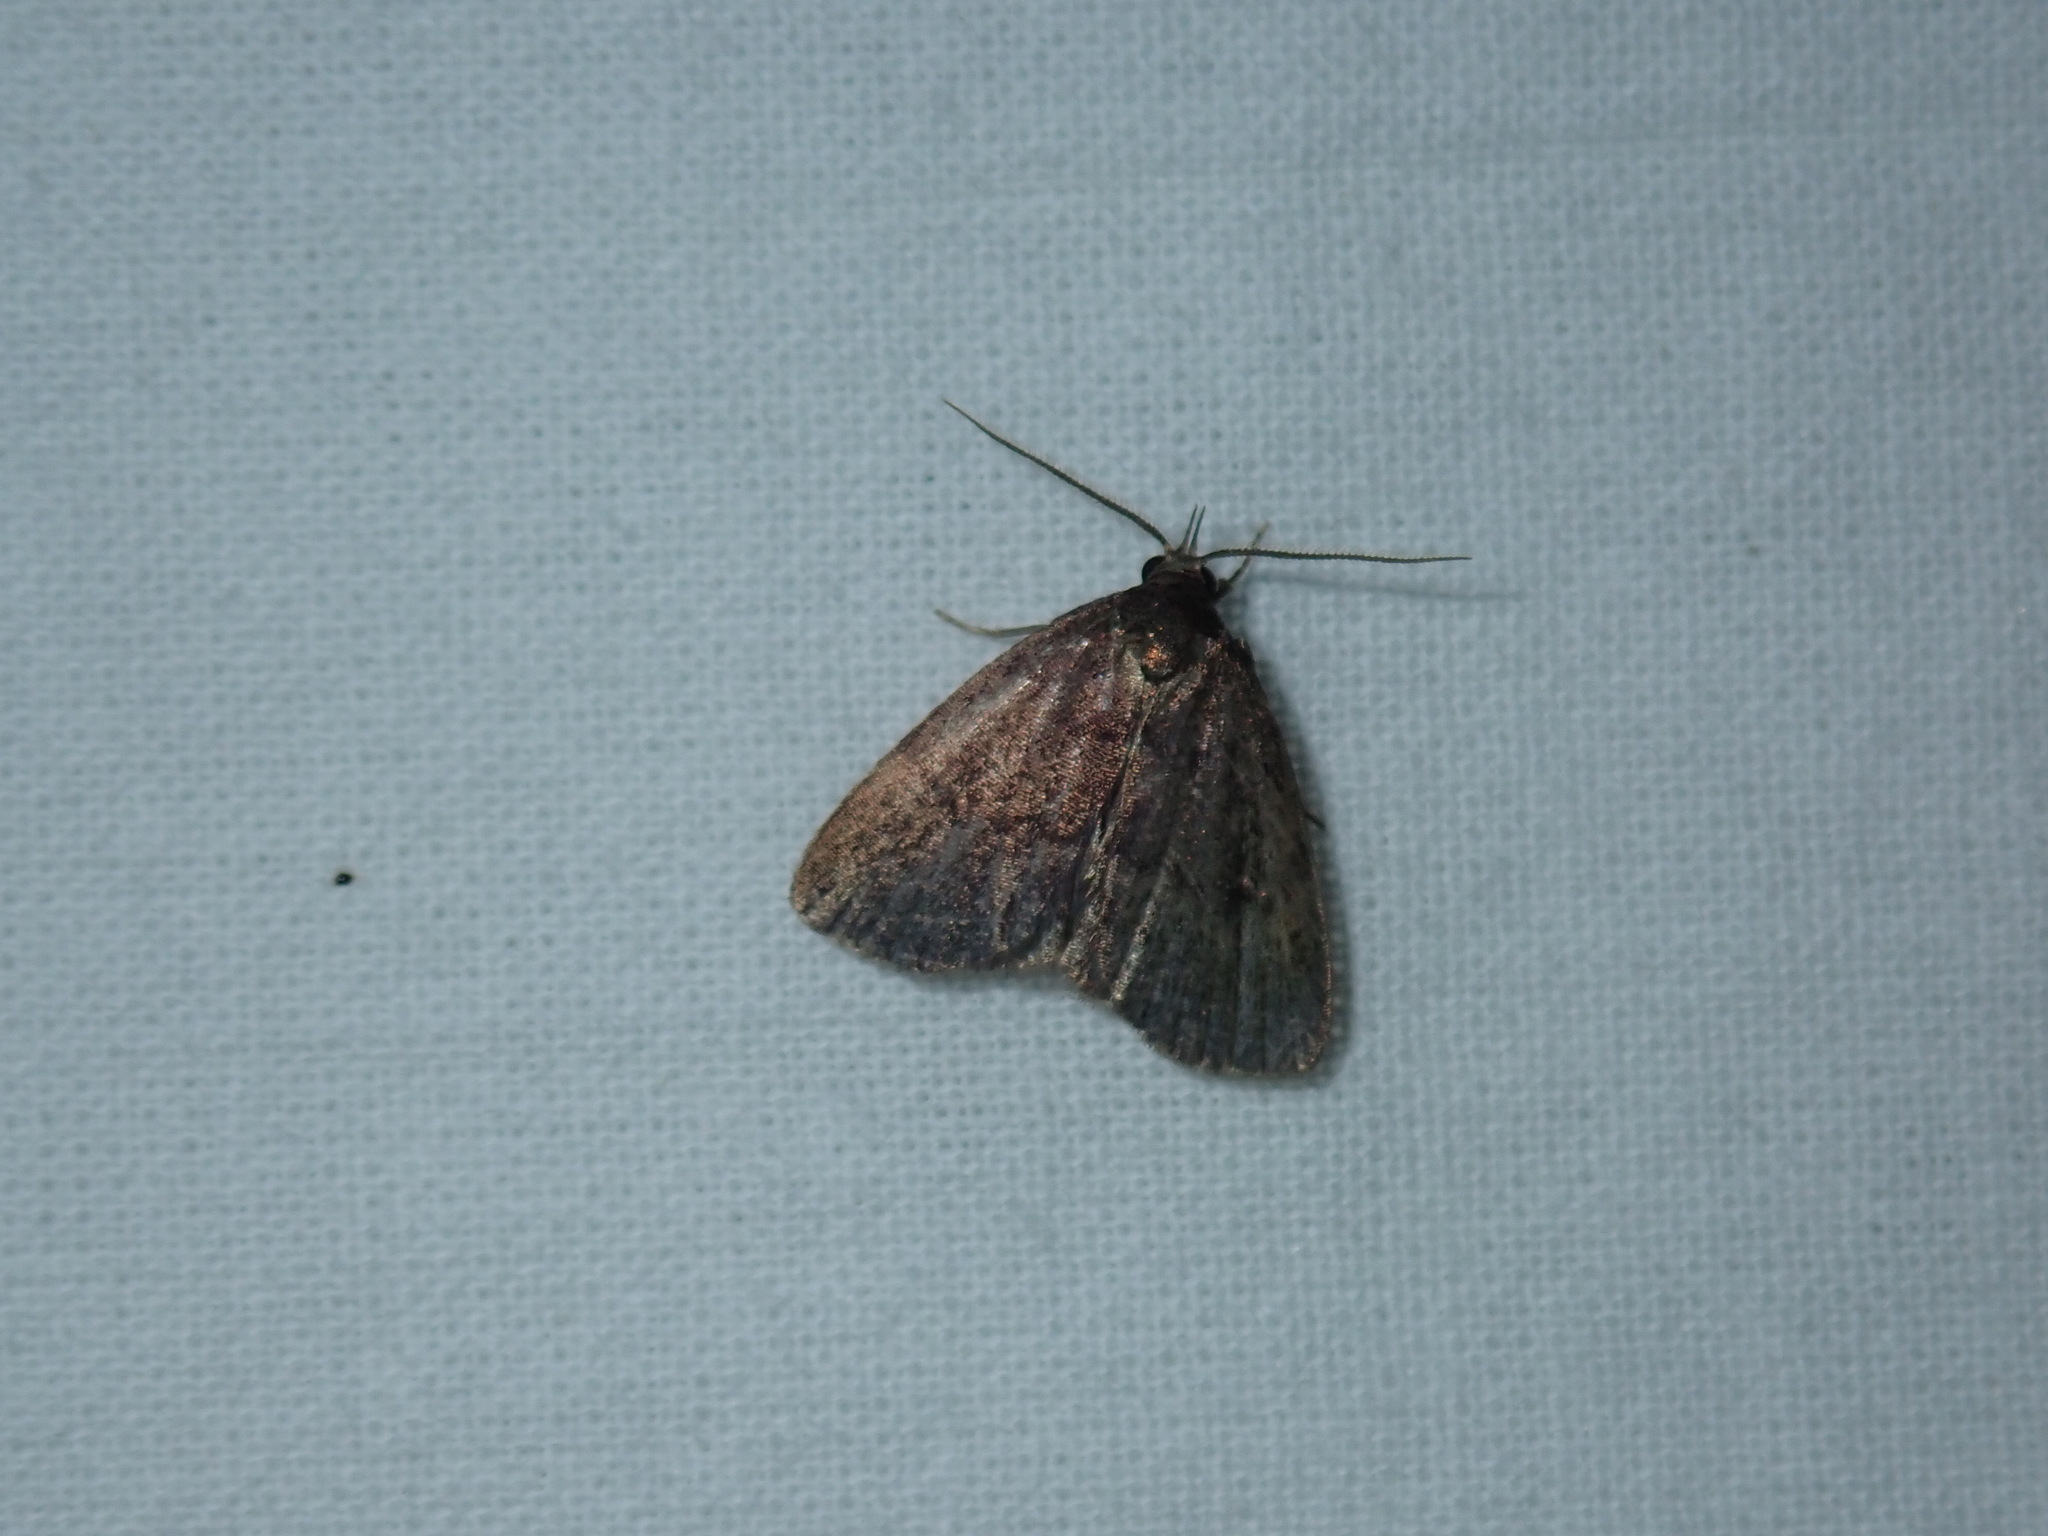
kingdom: Animalia
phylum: Arthropoda
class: Insecta
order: Lepidoptera
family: Erebidae
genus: Idia
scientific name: Idia rotundalis
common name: Rotund idia moth
